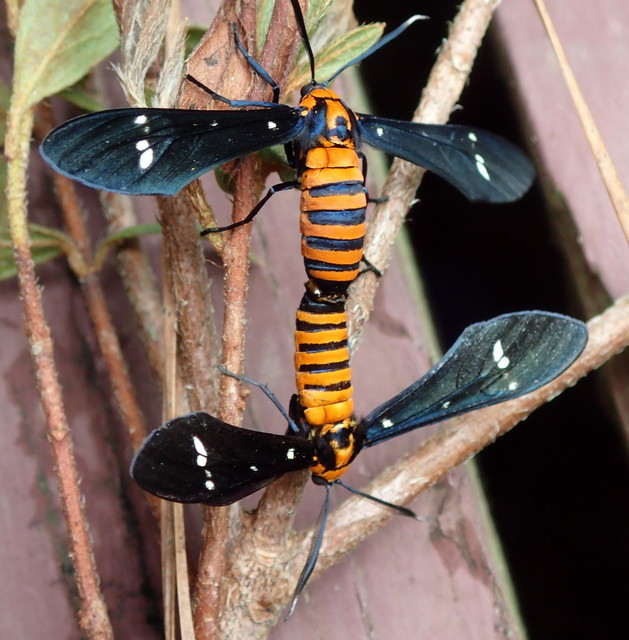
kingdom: Animalia
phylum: Arthropoda
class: Insecta
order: Lepidoptera
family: Erebidae
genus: Syntomeida
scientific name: Syntomeida ipomoeae
